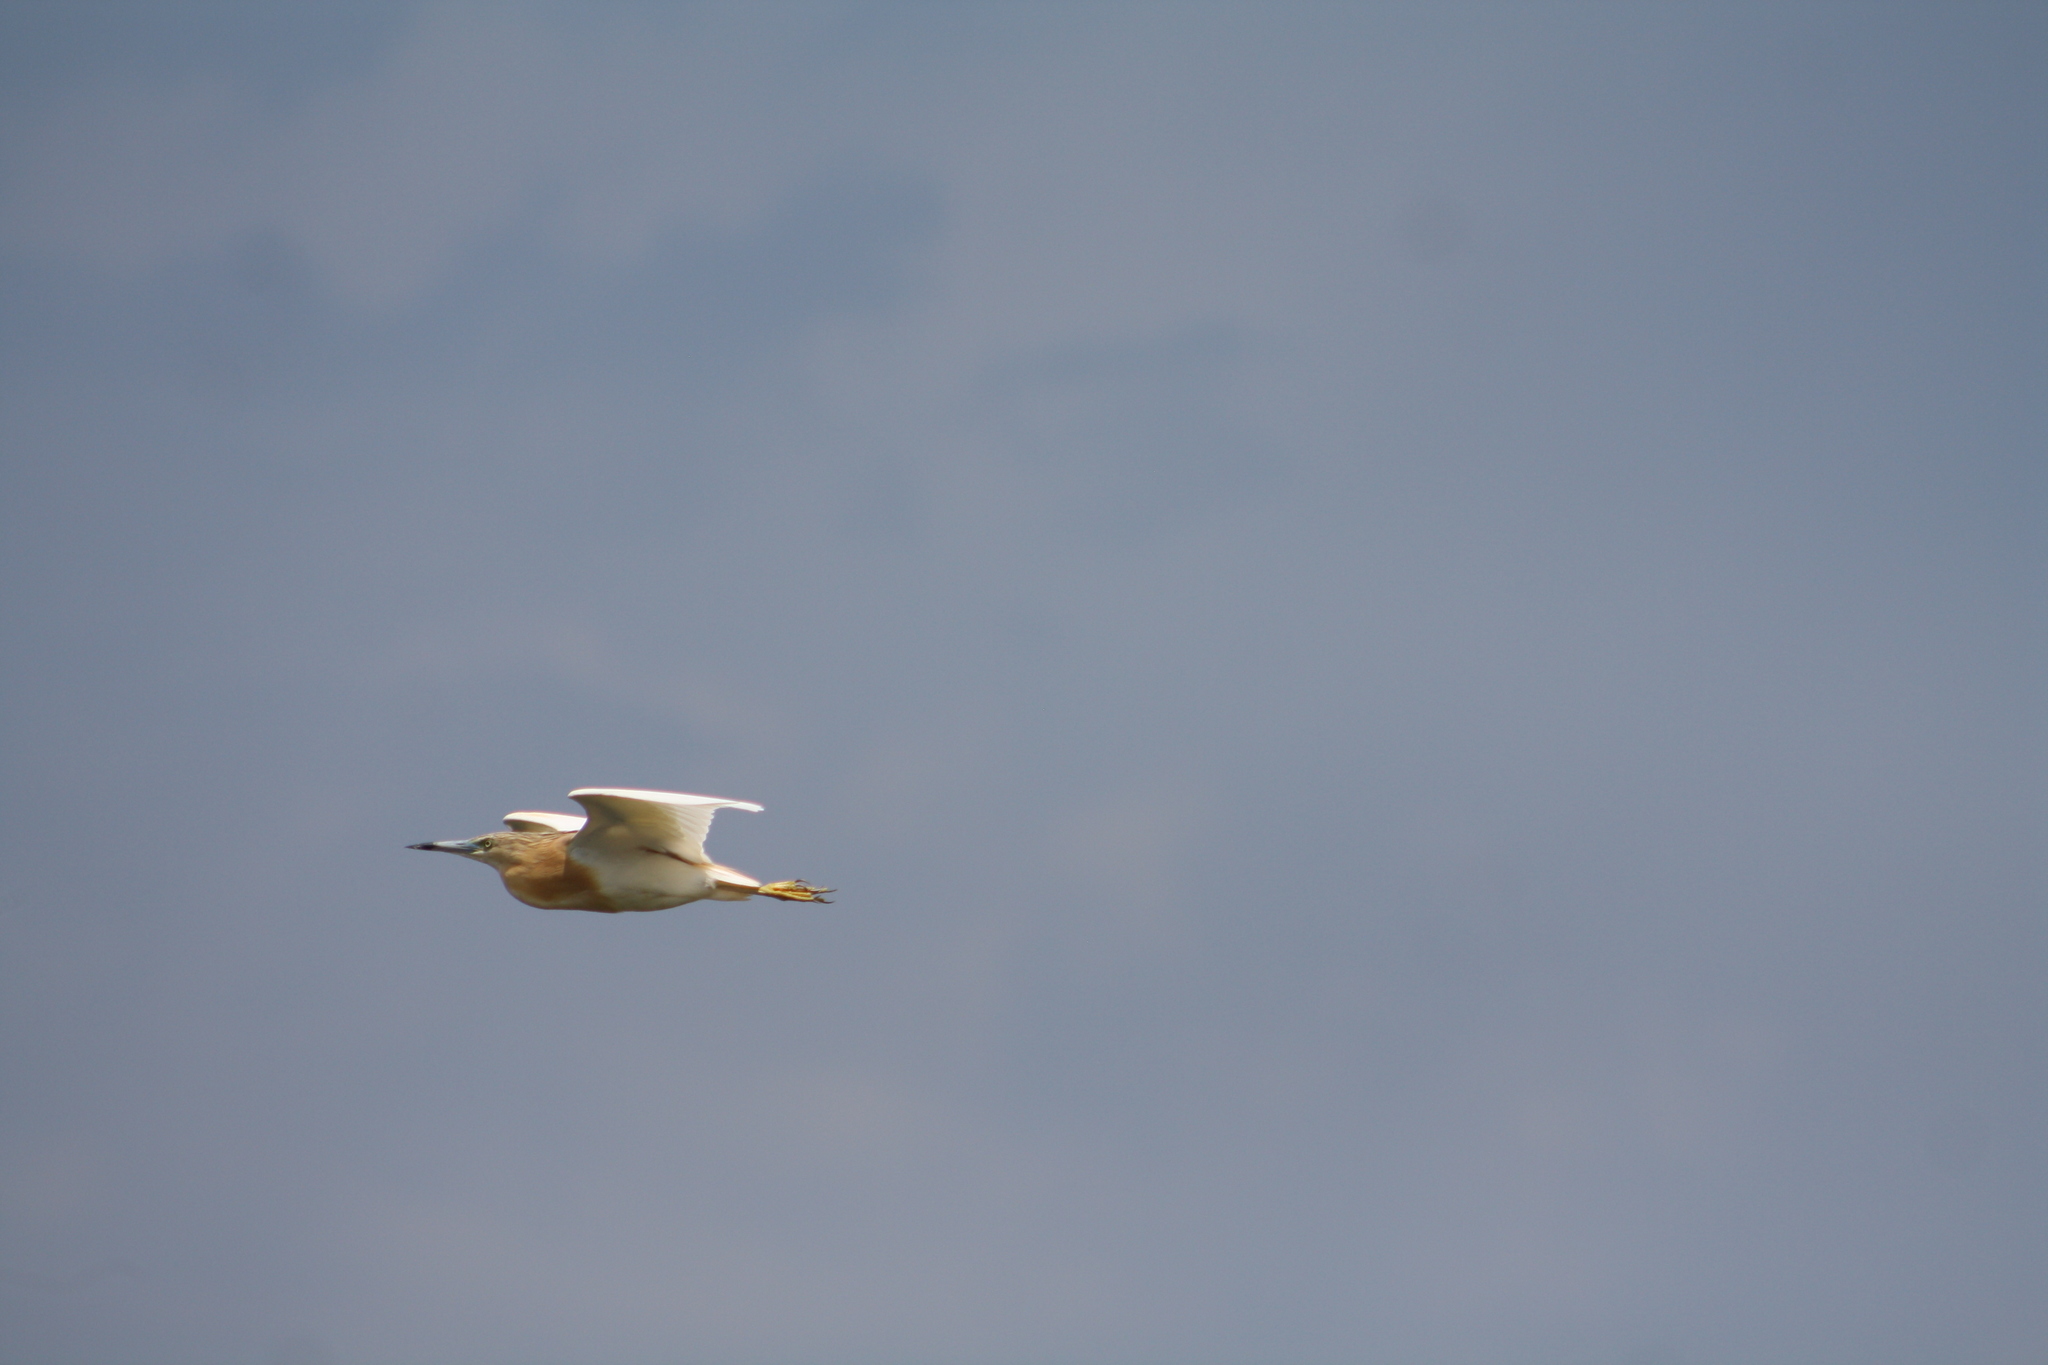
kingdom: Animalia
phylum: Chordata
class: Aves
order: Pelecaniformes
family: Ardeidae
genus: Ardeola
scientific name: Ardeola ralloides
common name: Squacco heron
